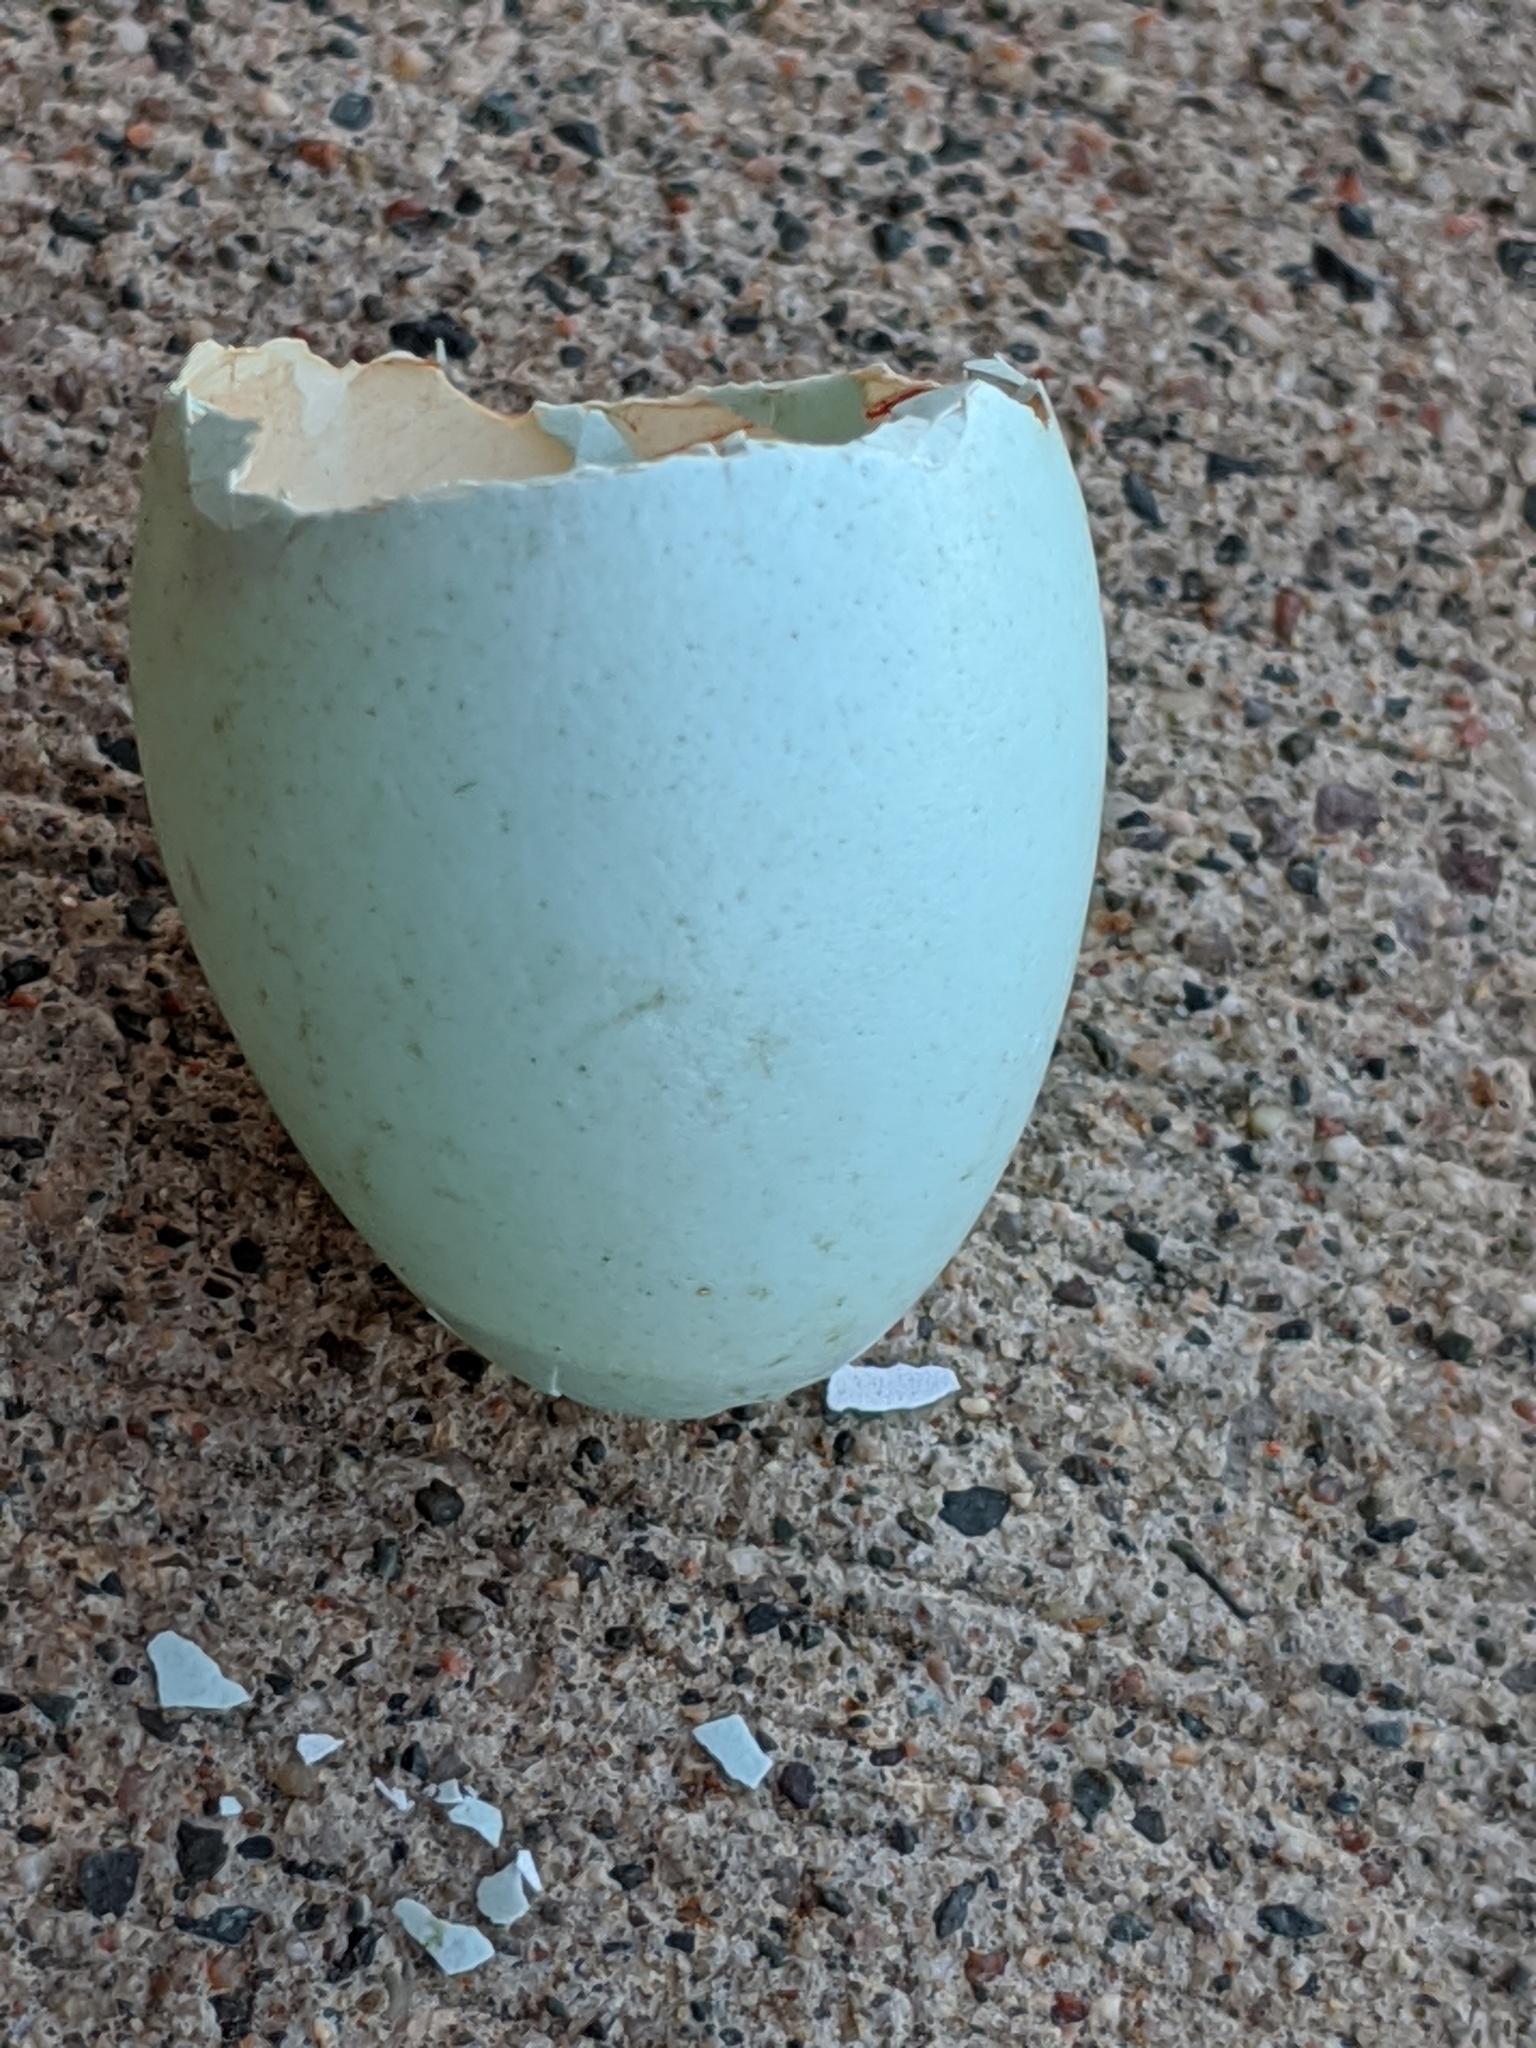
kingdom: Animalia
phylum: Chordata
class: Aves
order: Passeriformes
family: Turdidae
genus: Turdus
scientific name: Turdus migratorius
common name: American robin
